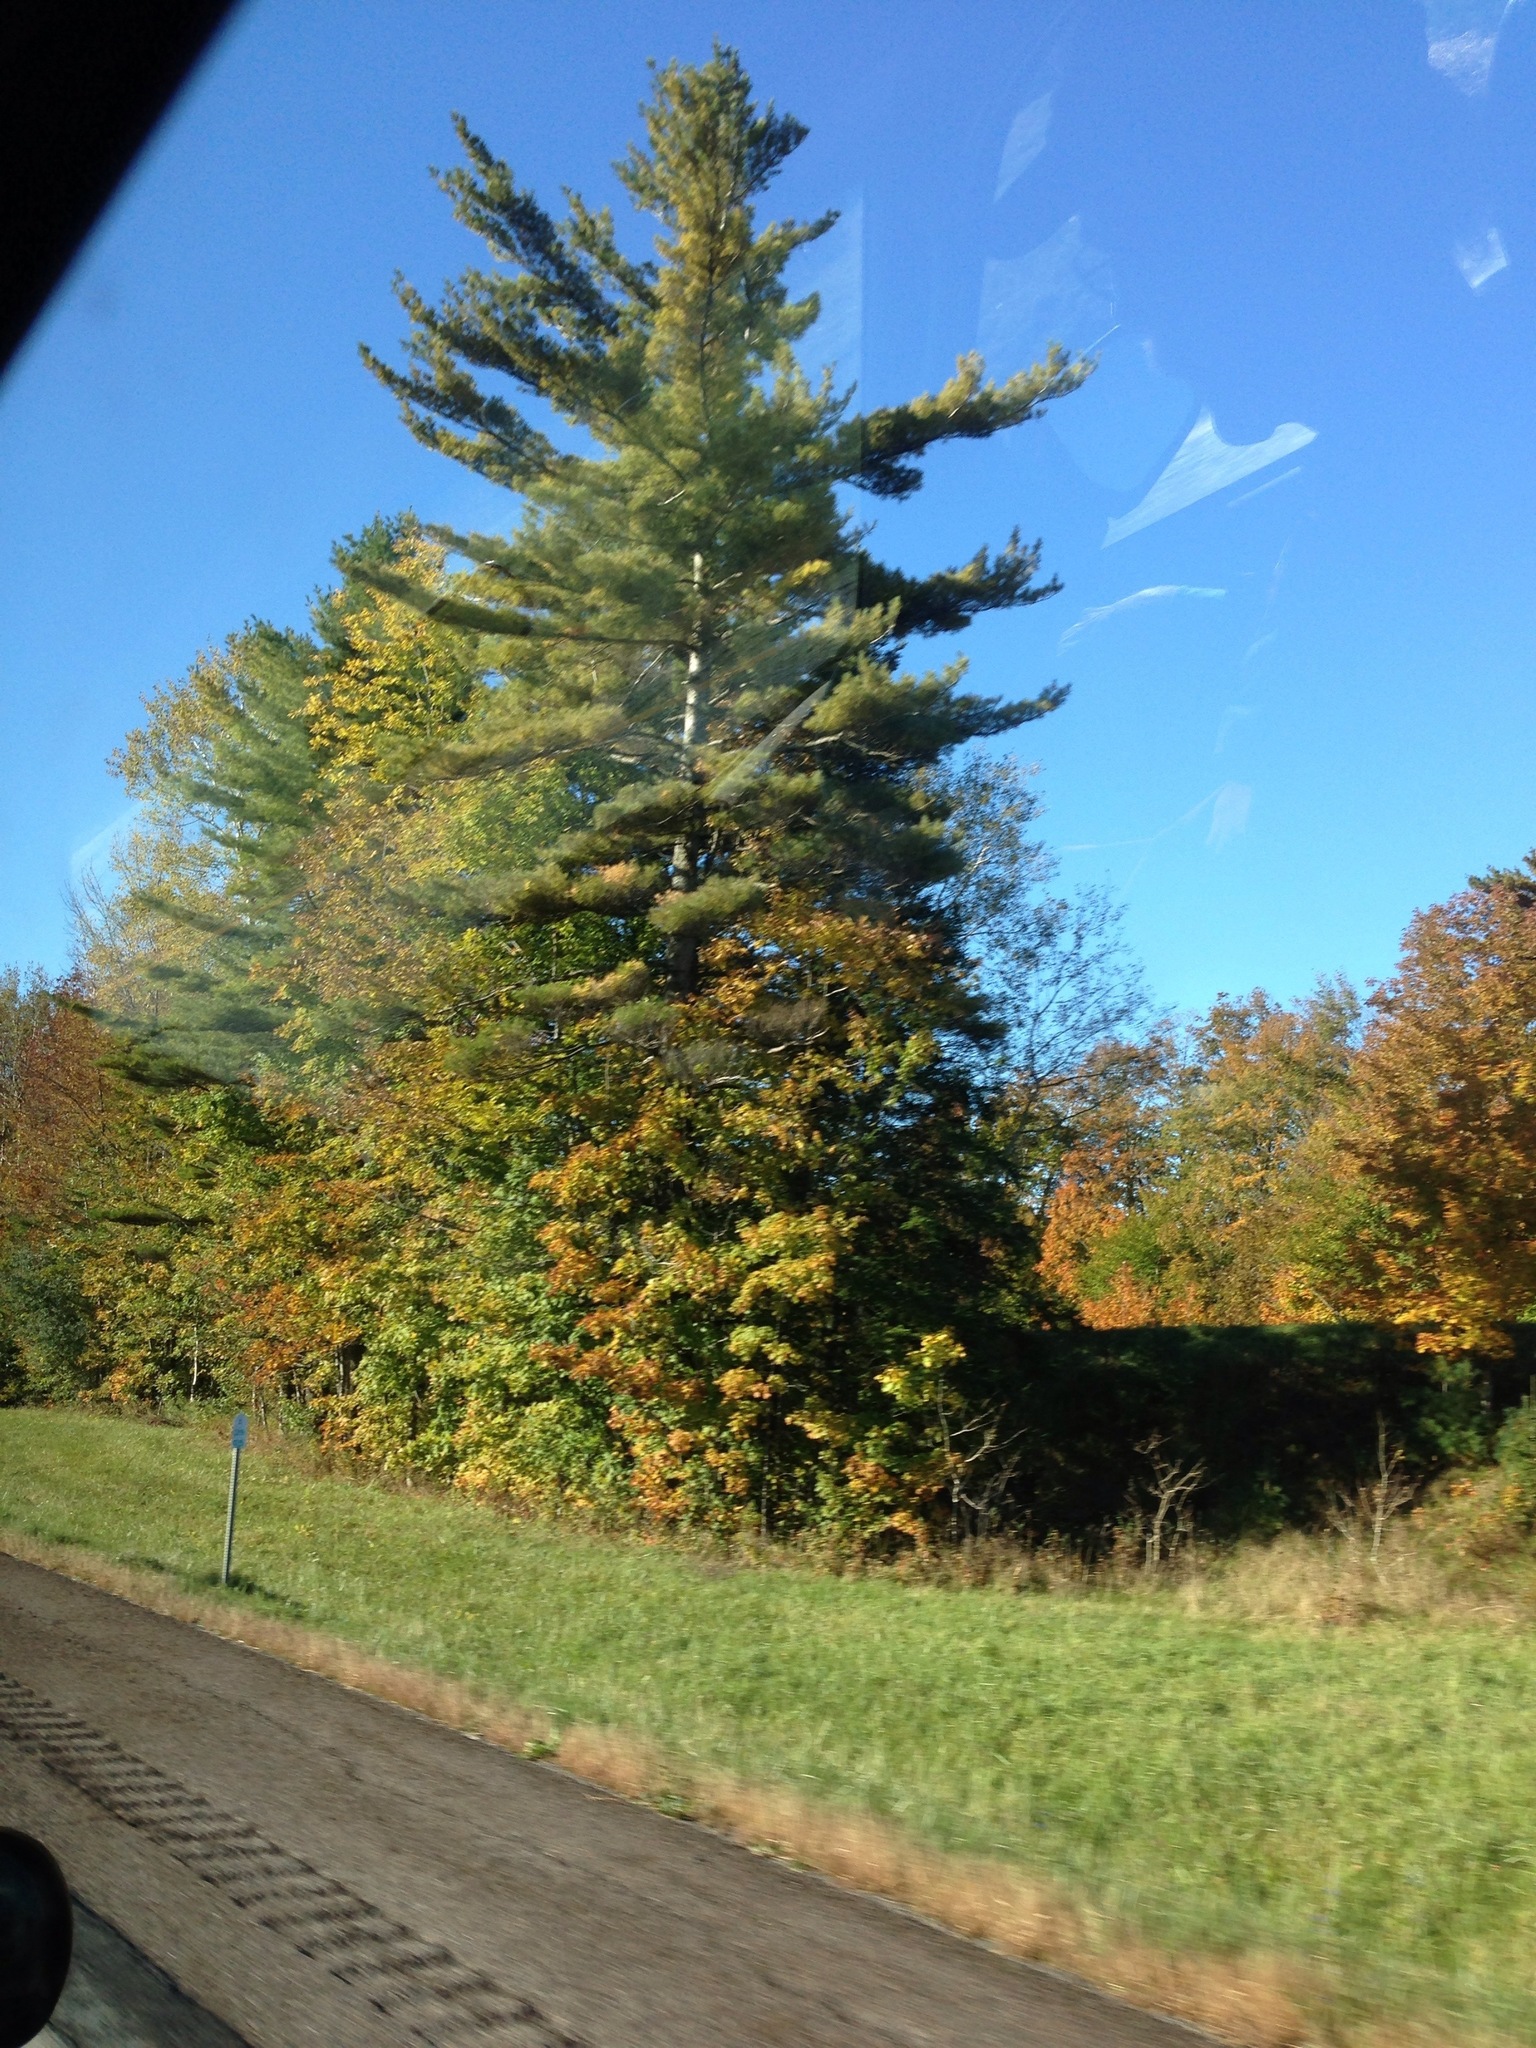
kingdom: Plantae
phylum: Tracheophyta
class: Pinopsida
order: Pinales
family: Pinaceae
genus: Pinus
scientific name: Pinus strobus
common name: Weymouth pine
